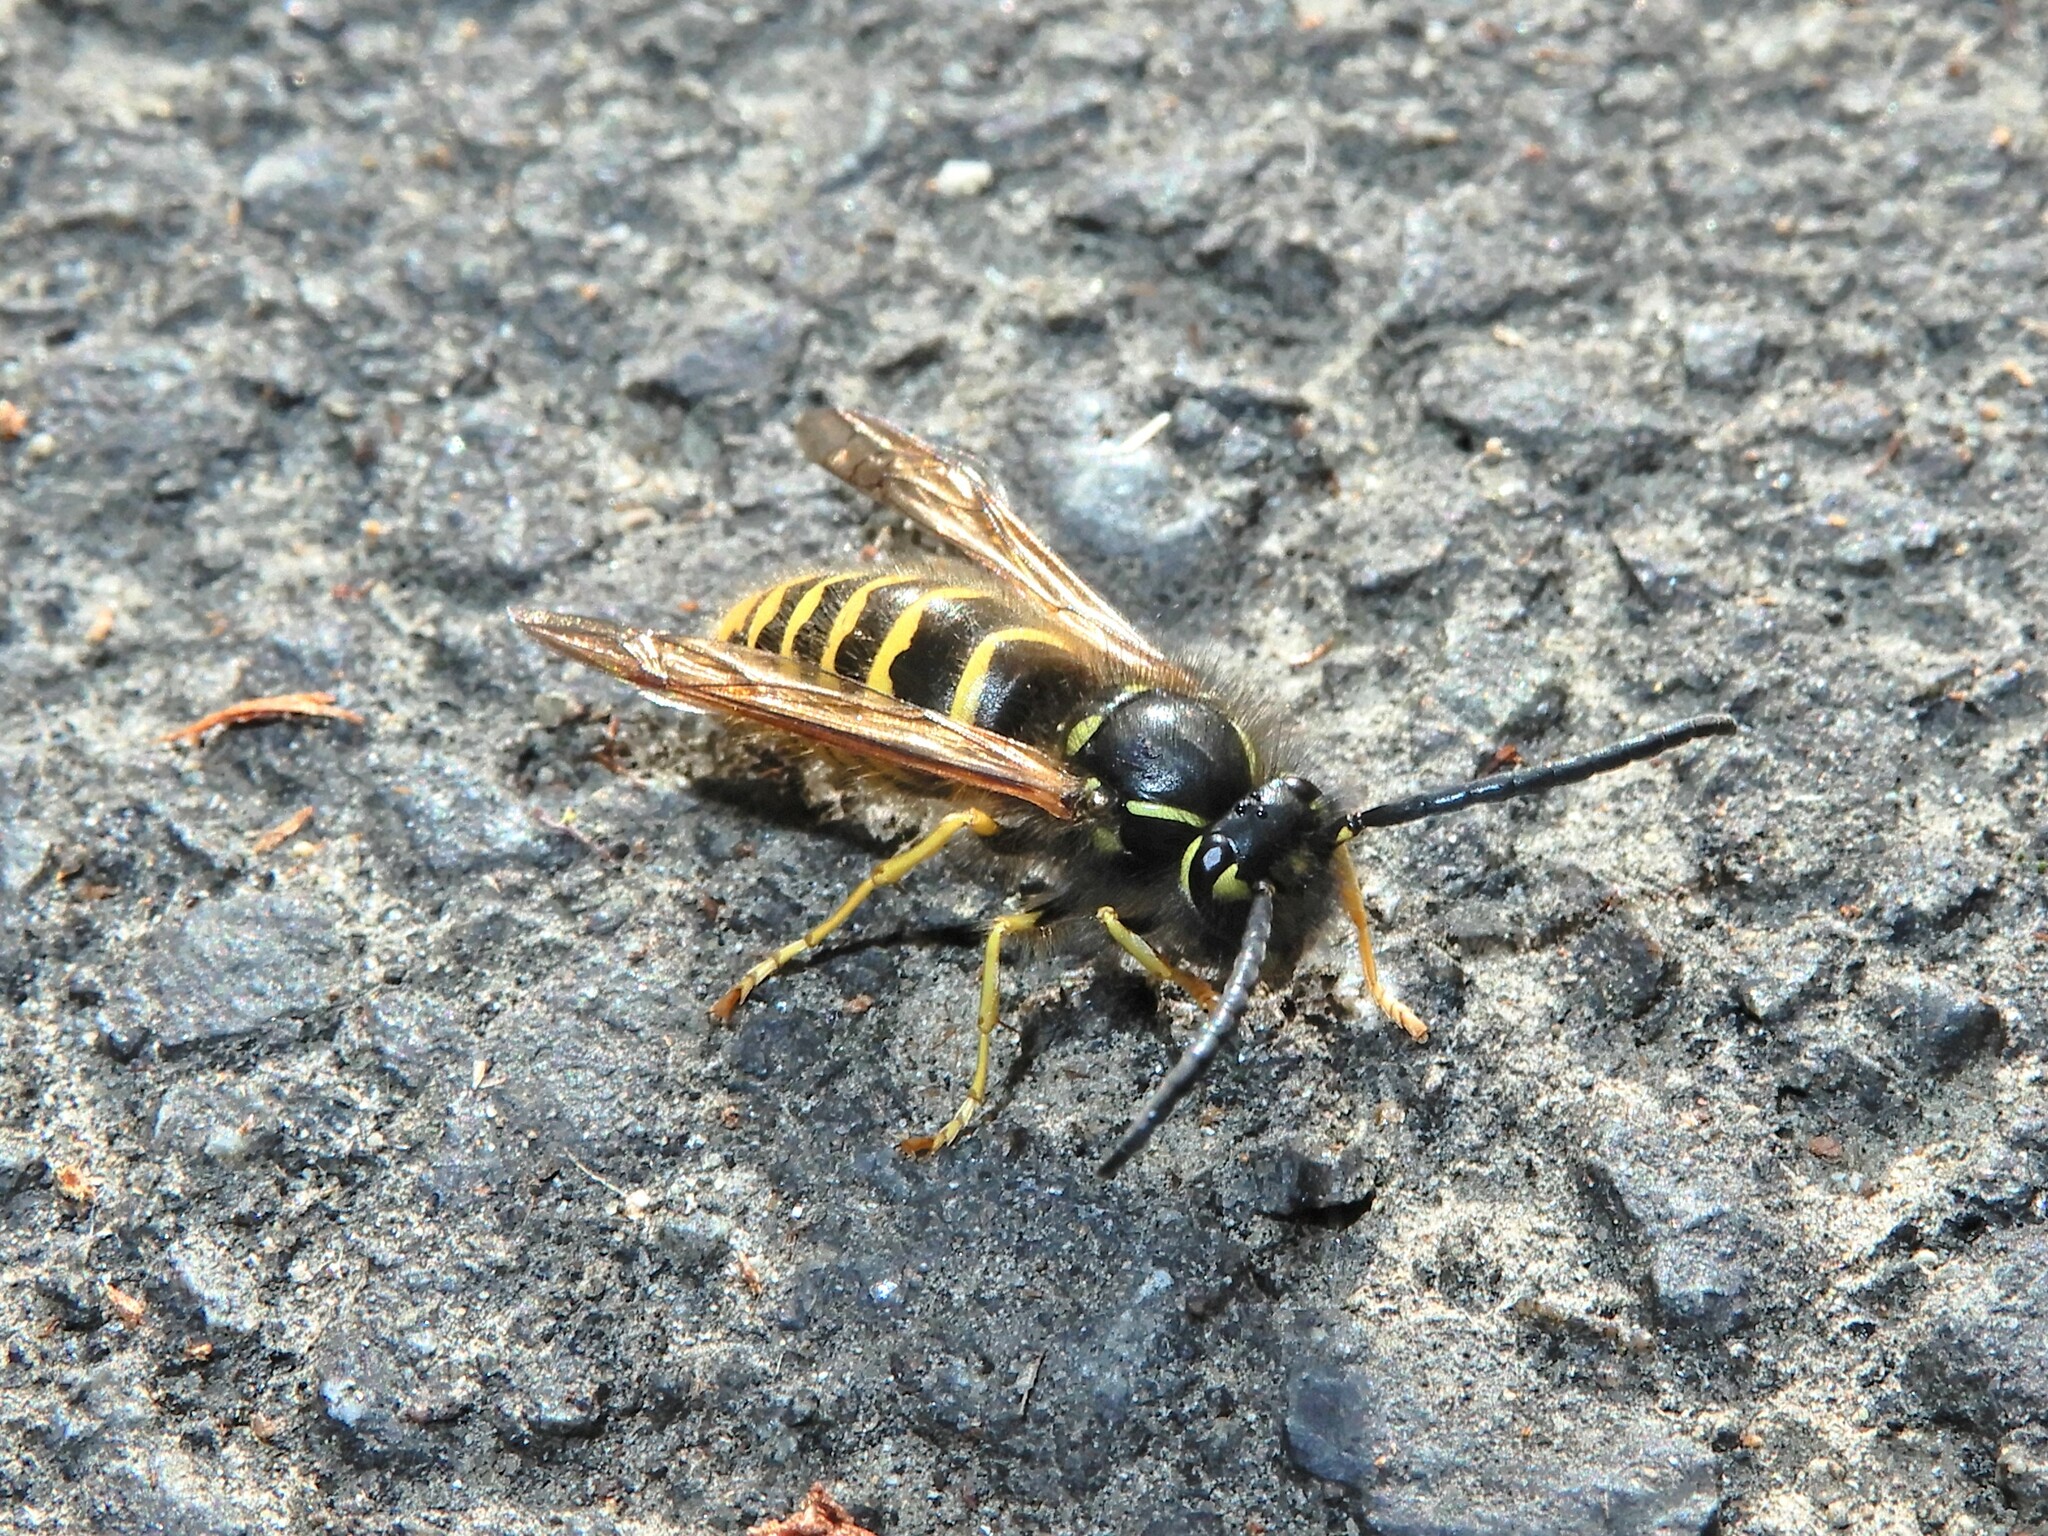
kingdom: Animalia
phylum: Arthropoda
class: Insecta
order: Hymenoptera
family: Vespidae
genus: Vespula
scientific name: Vespula vulgaris
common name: Common wasp
